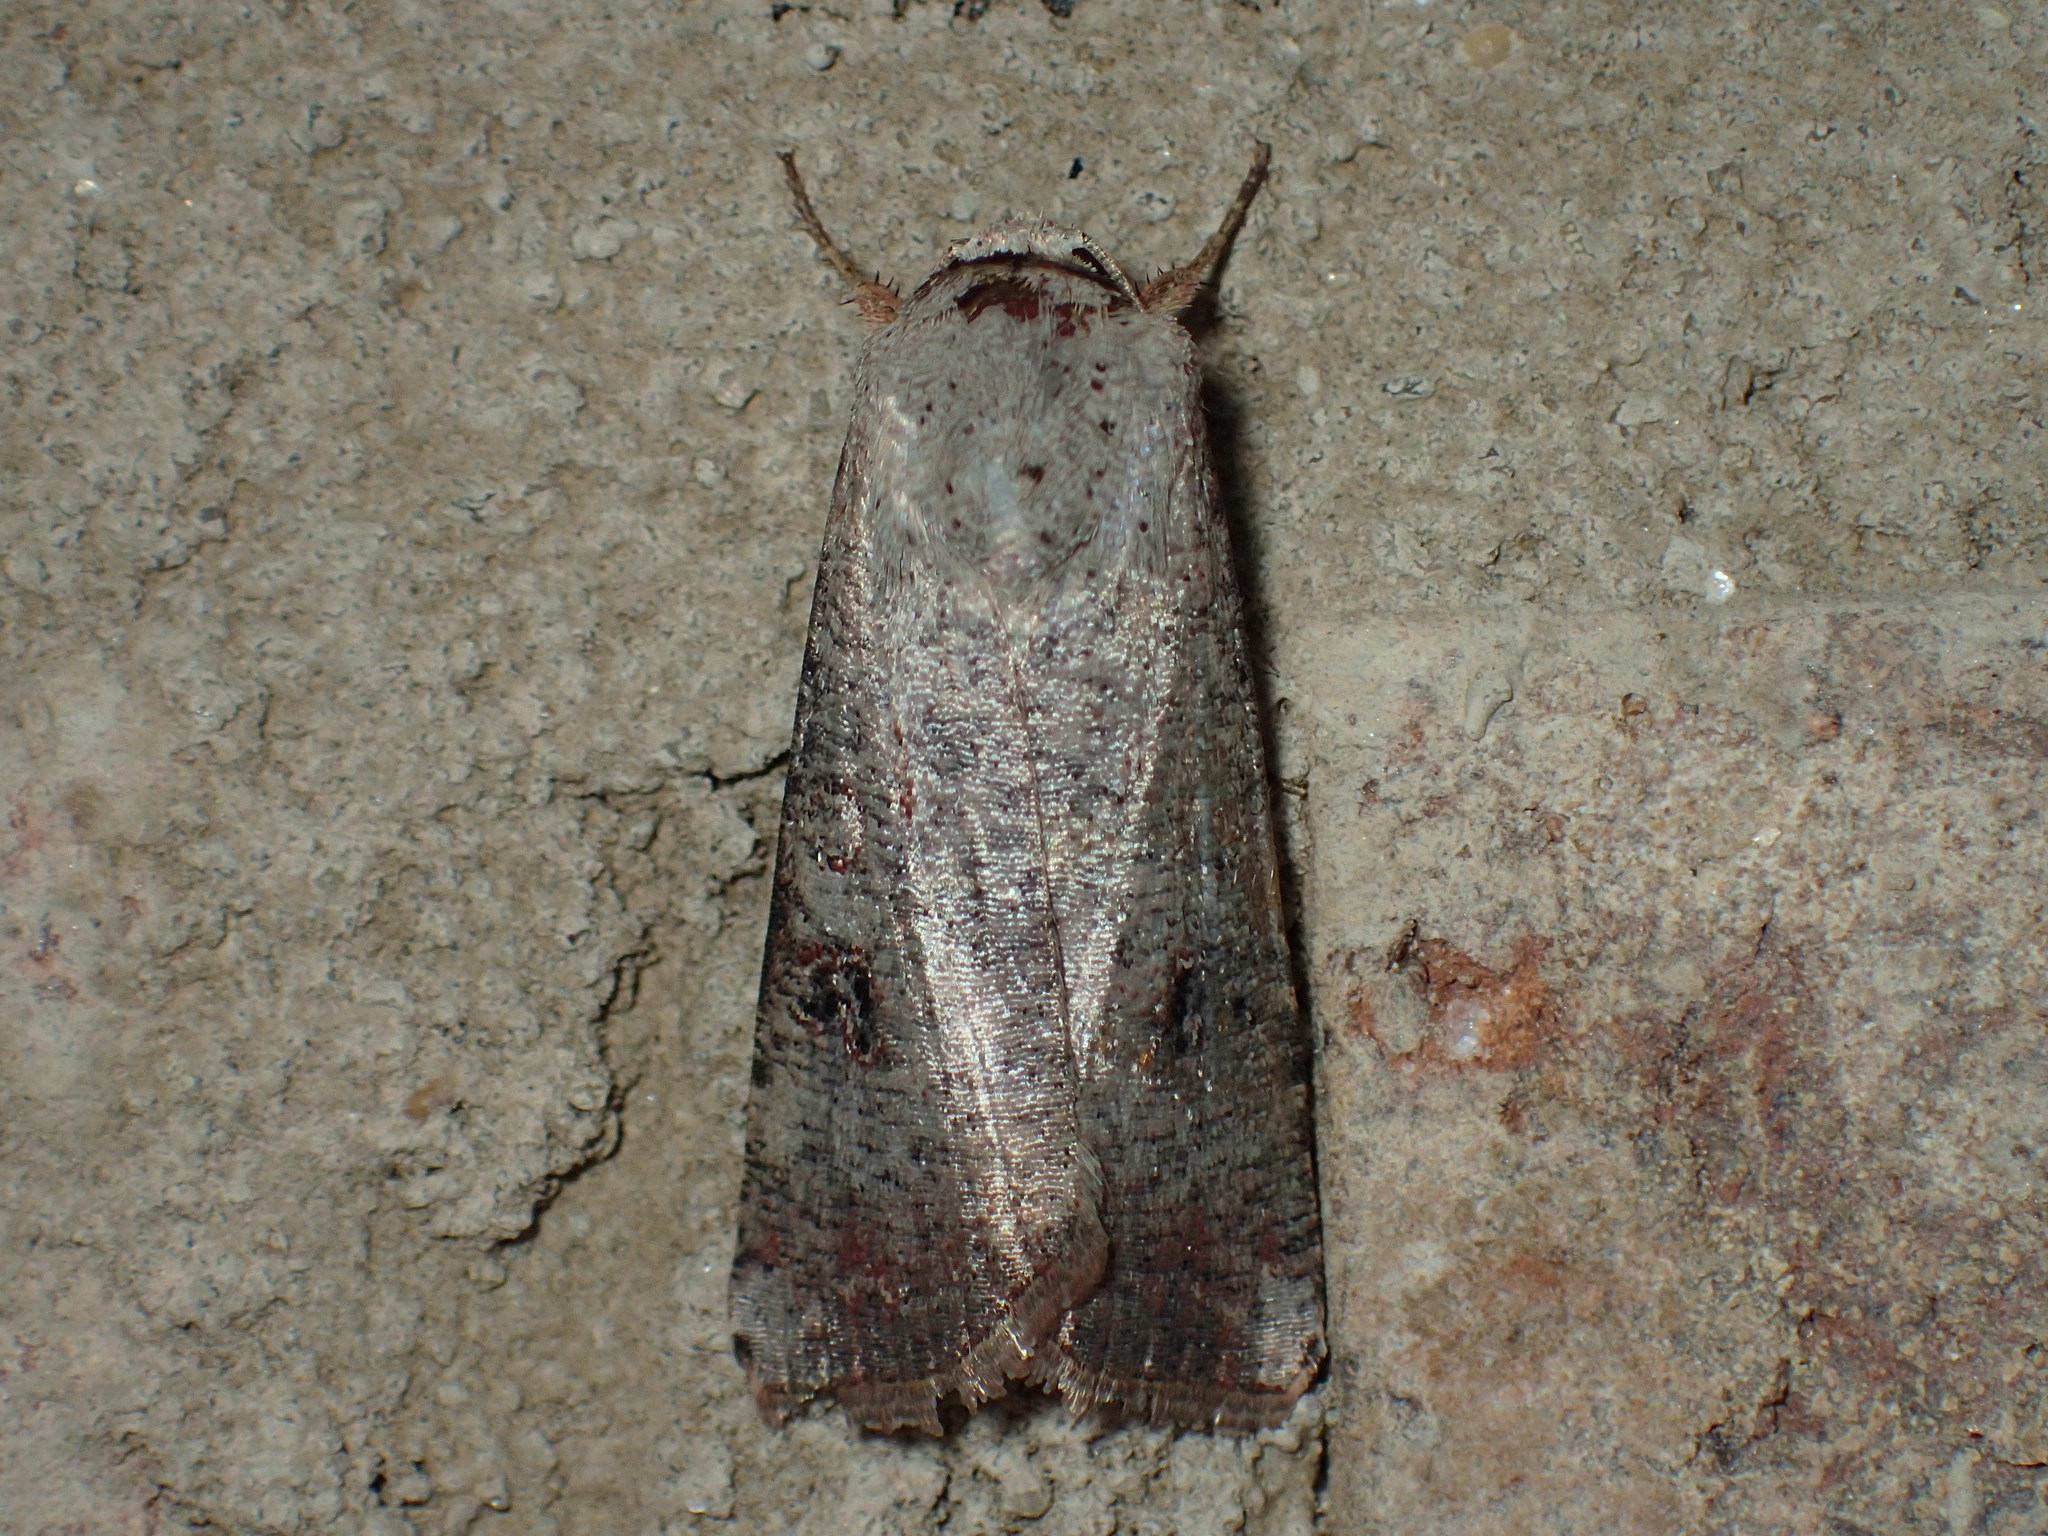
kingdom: Animalia
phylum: Arthropoda
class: Insecta
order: Lepidoptera
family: Noctuidae
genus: Anicla
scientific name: Anicla infecta
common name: Green cutworm
